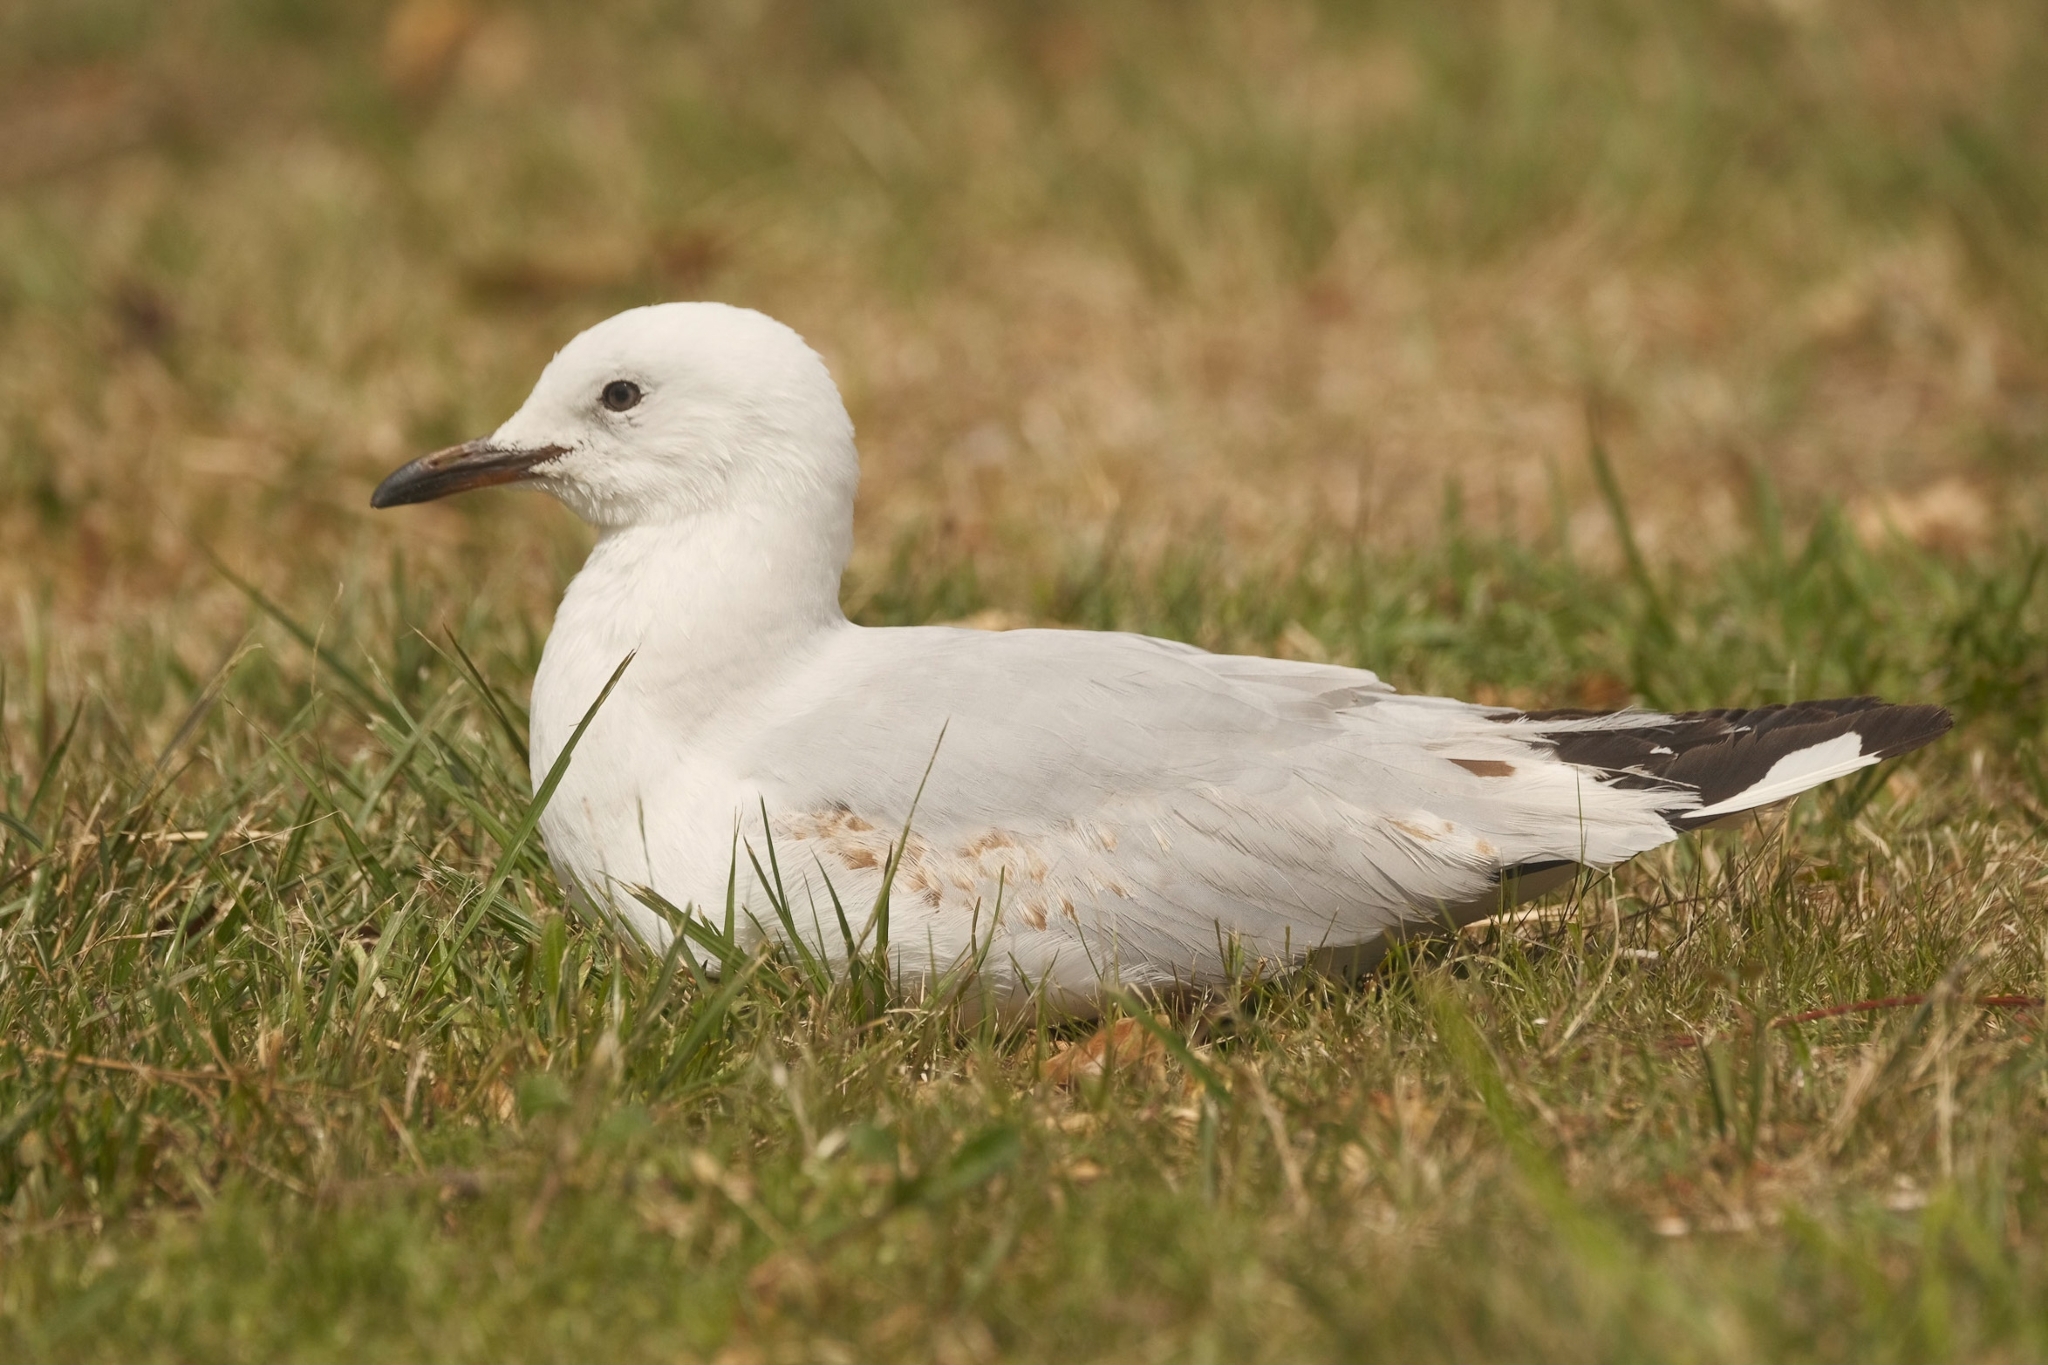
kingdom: Animalia
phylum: Chordata
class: Aves
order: Charadriiformes
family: Laridae
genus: Chroicocephalus
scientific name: Chroicocephalus novaehollandiae
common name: Silver gull
